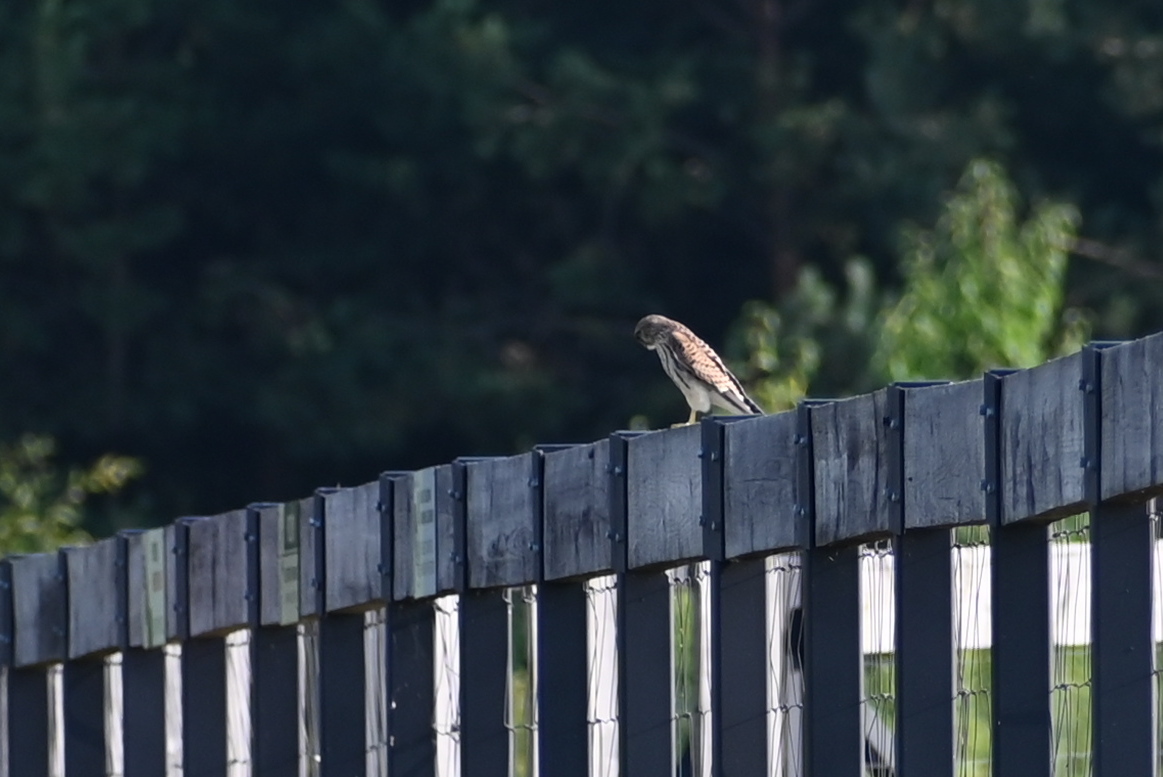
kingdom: Animalia
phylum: Chordata
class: Aves
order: Falconiformes
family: Falconidae
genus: Falco
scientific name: Falco tinnunculus
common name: Common kestrel
